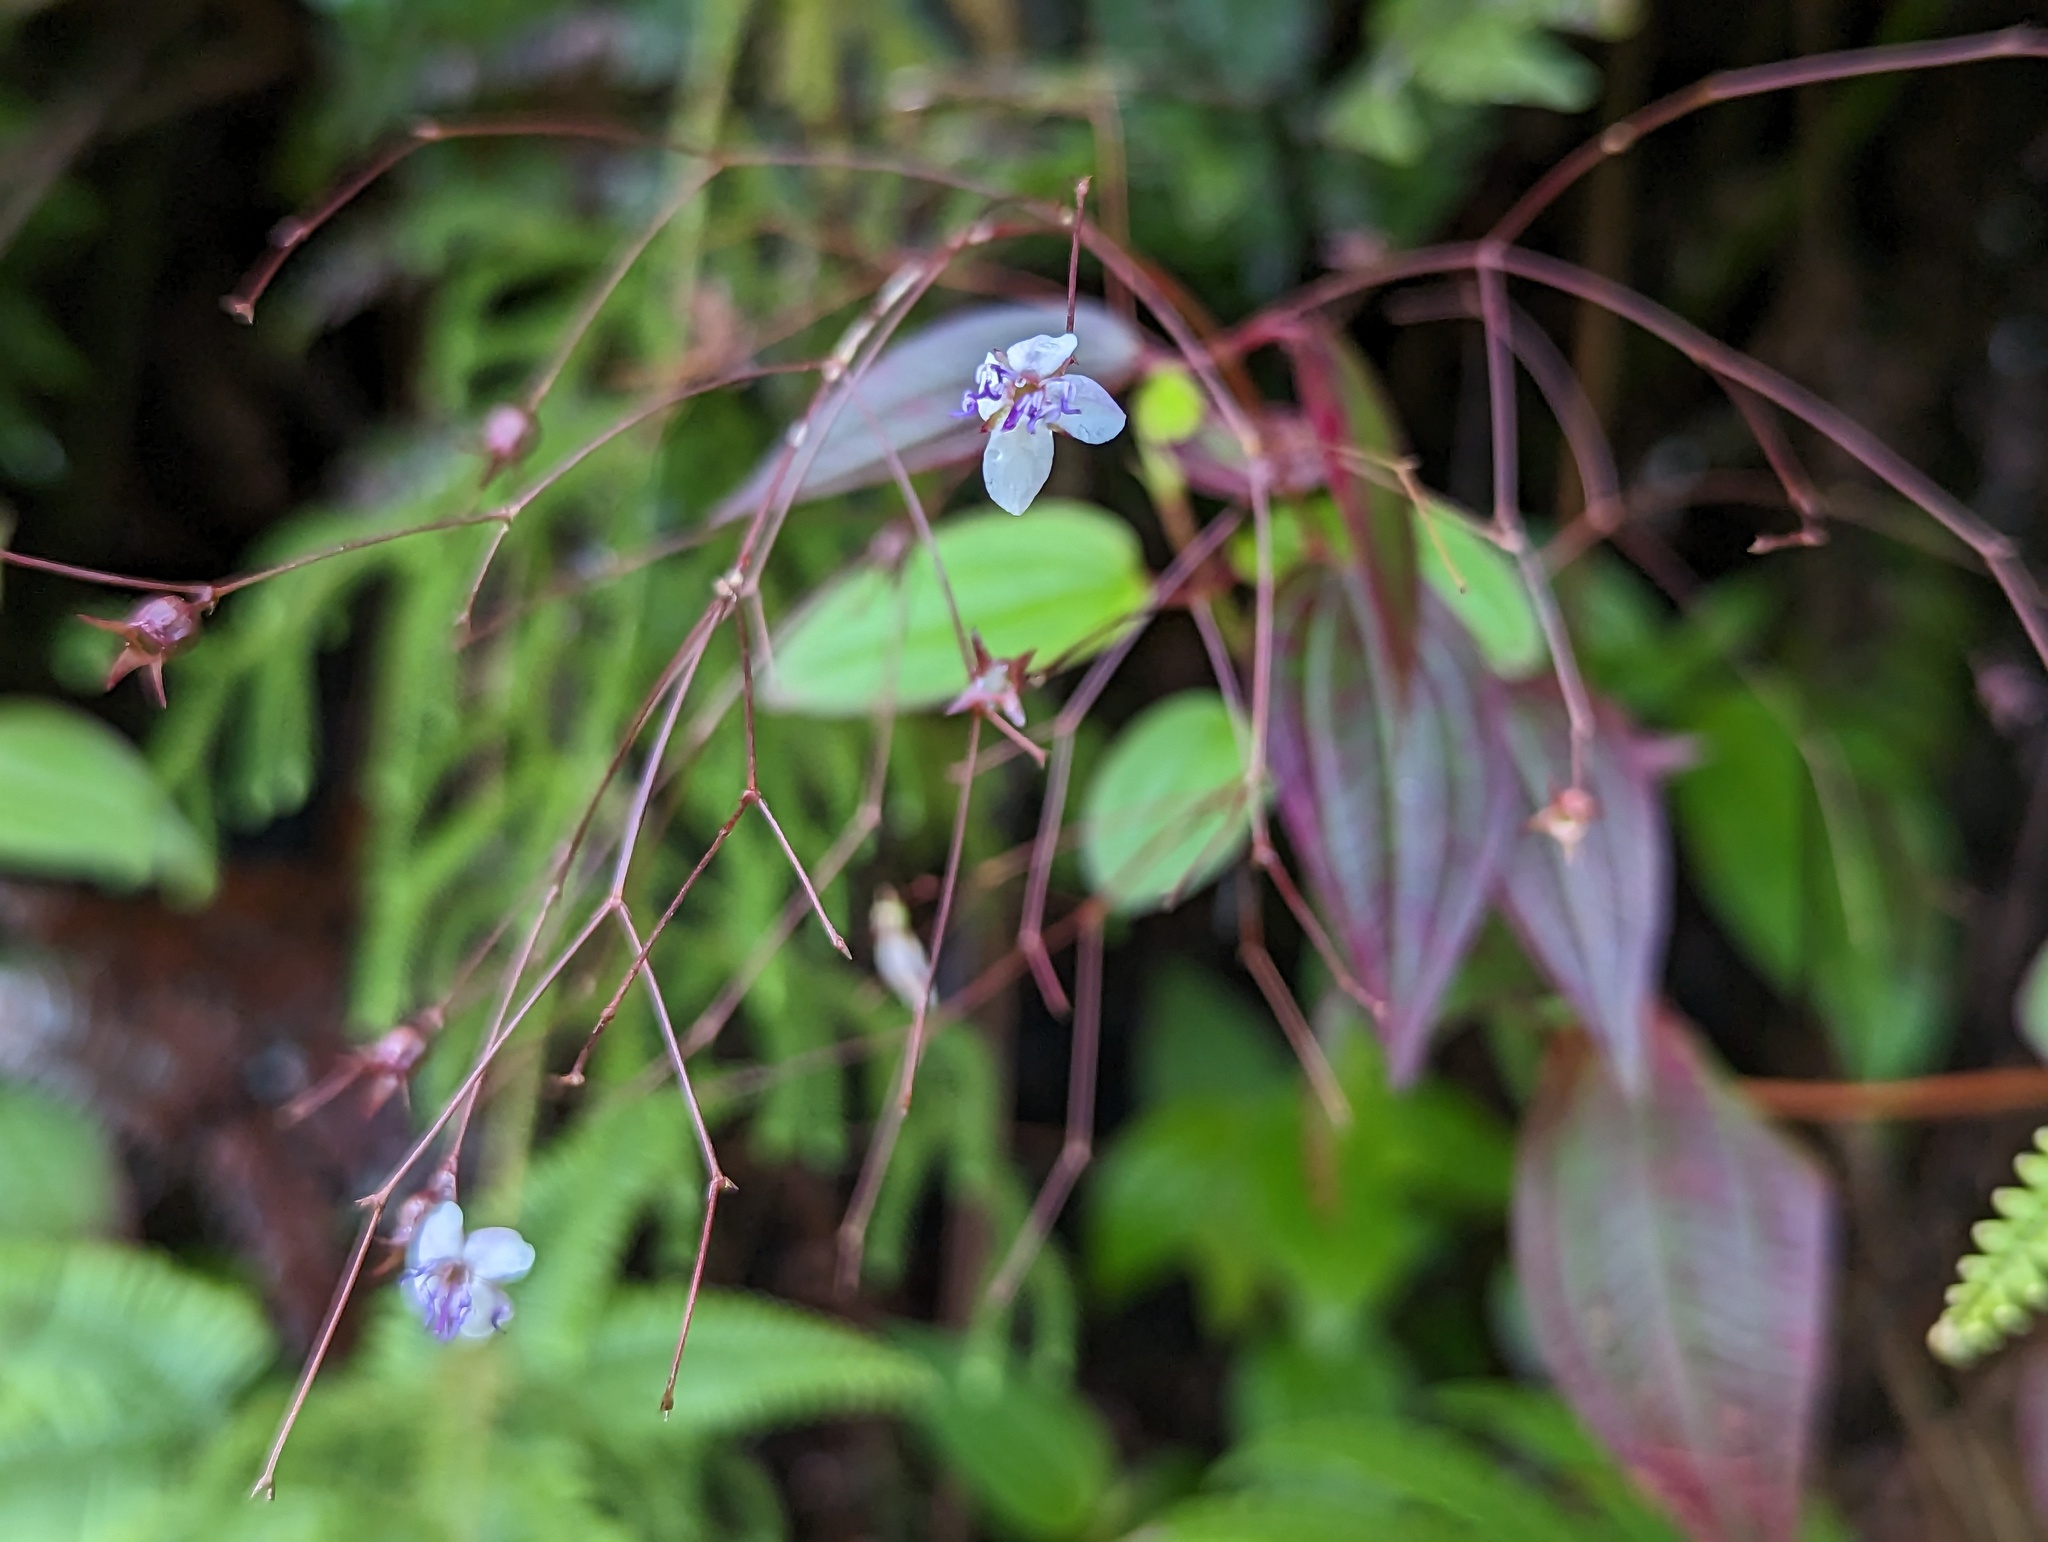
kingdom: Plantae
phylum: Tracheophyta
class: Magnoliopsida
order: Myrtales
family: Melastomataceae
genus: Nepsera
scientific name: Nepsera aquatica
